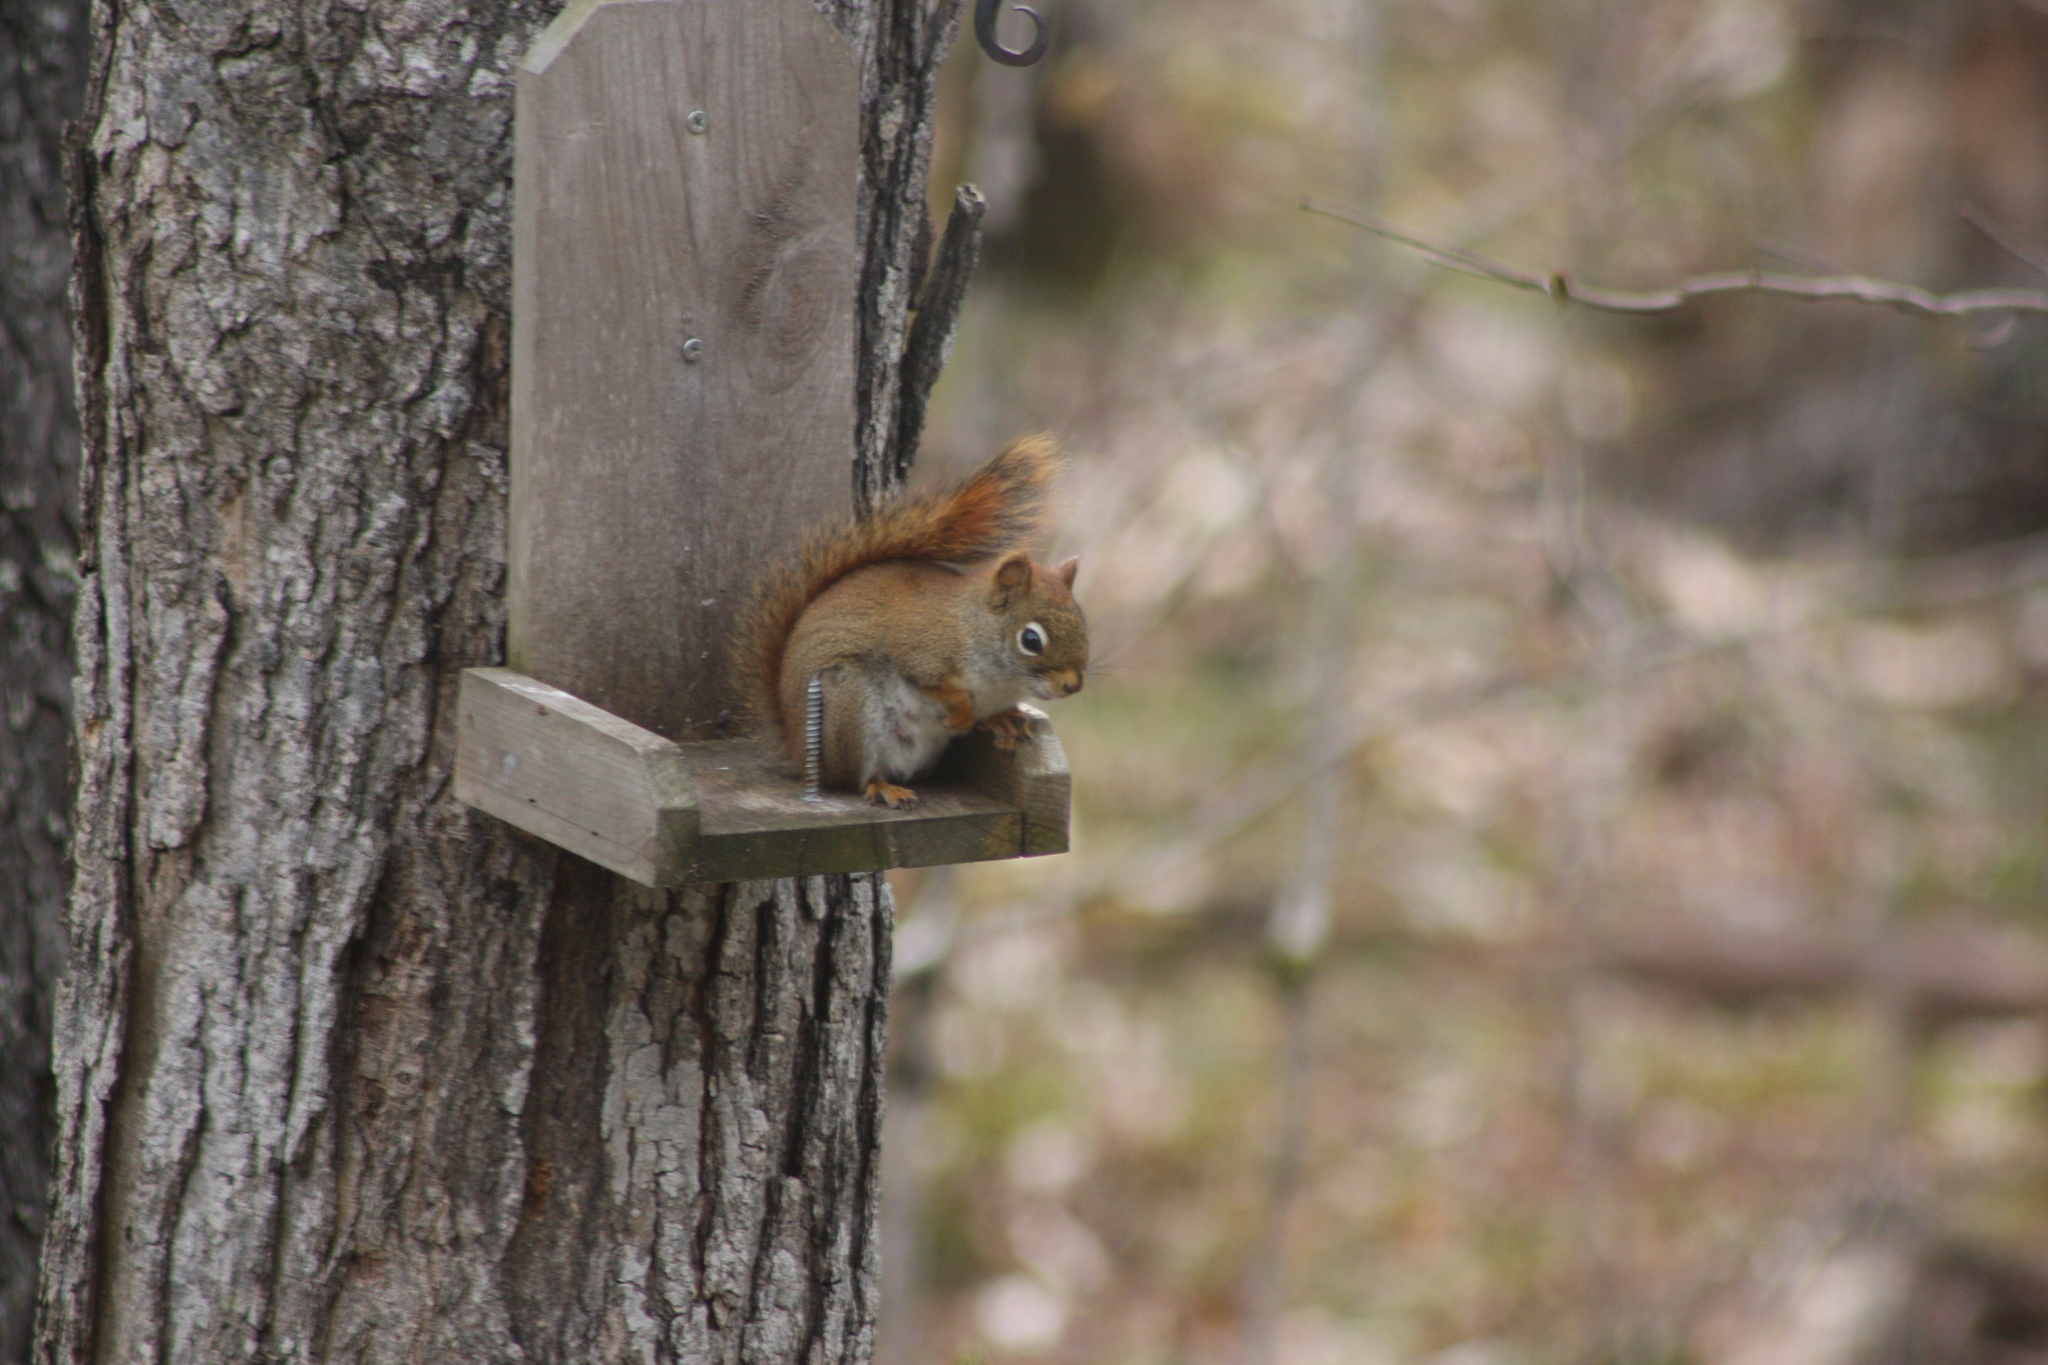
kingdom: Animalia
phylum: Chordata
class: Mammalia
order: Rodentia
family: Sciuridae
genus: Tamiasciurus
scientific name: Tamiasciurus hudsonicus
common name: Red squirrel
